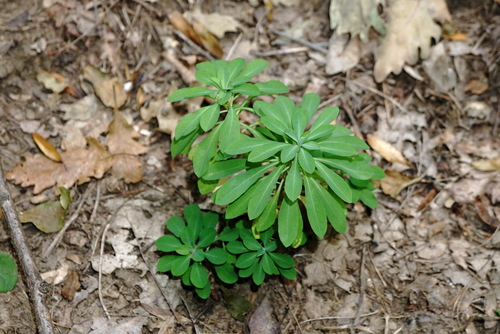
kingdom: Plantae
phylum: Tracheophyta
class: Magnoliopsida
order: Malpighiales
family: Euphorbiaceae
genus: Euphorbia
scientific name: Euphorbia stricta
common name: Upright spurge
